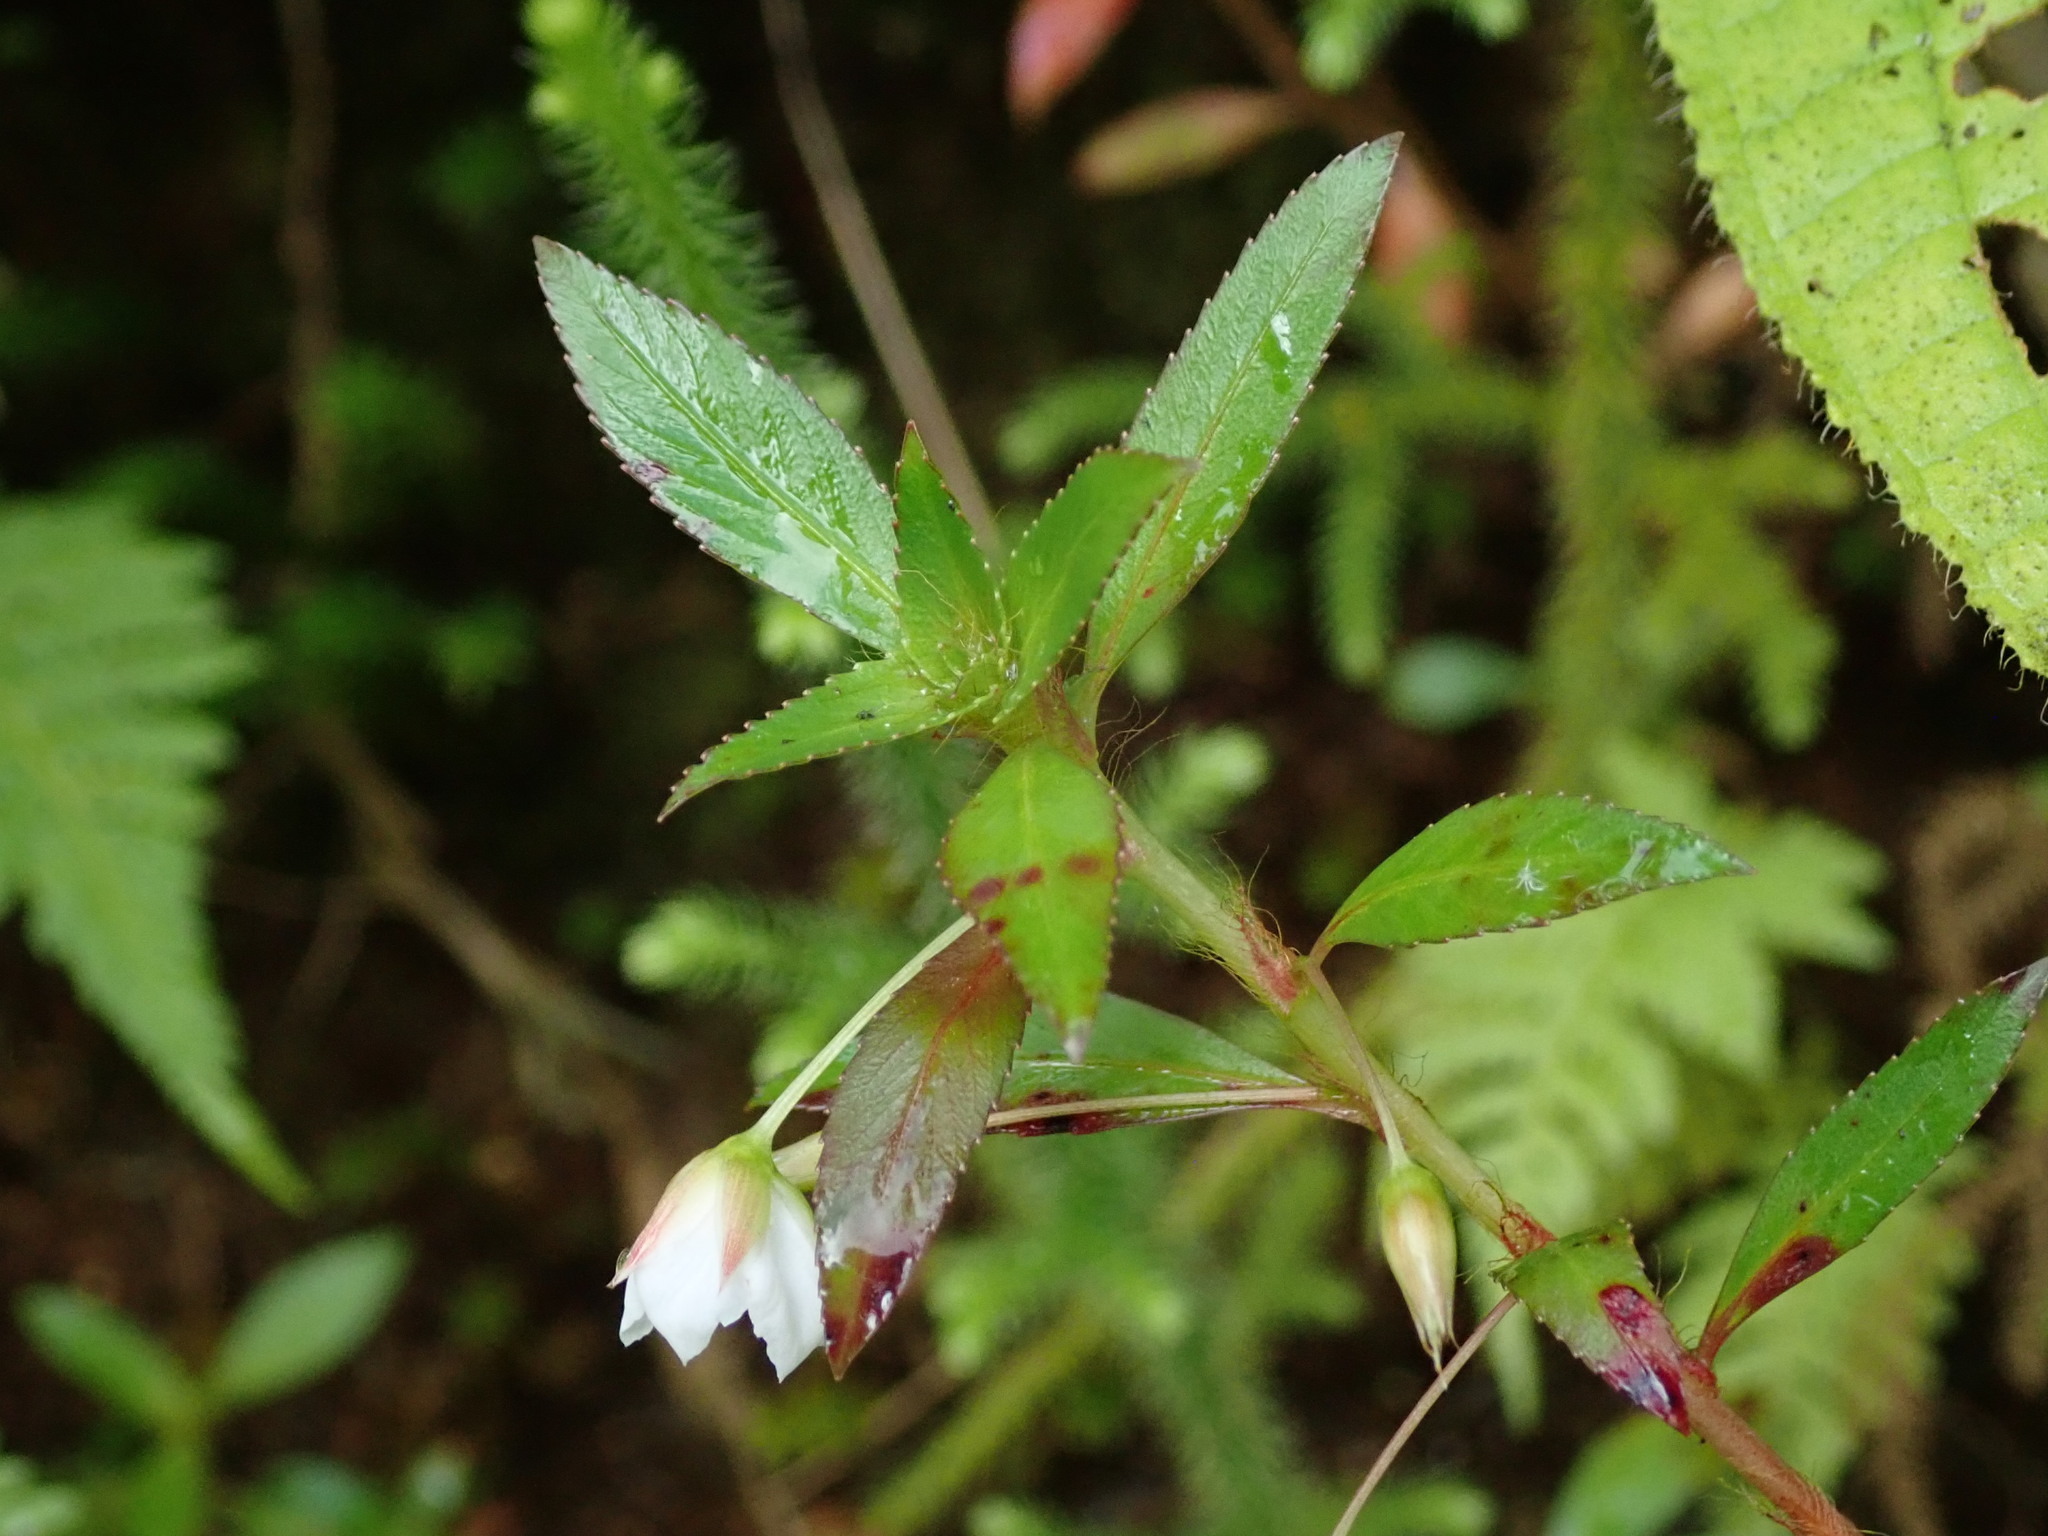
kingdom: Plantae
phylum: Tracheophyta
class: Magnoliopsida
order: Malpighiales
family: Ochnaceae
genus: Sauvagesia
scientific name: Sauvagesia erecta
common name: Creole tea
